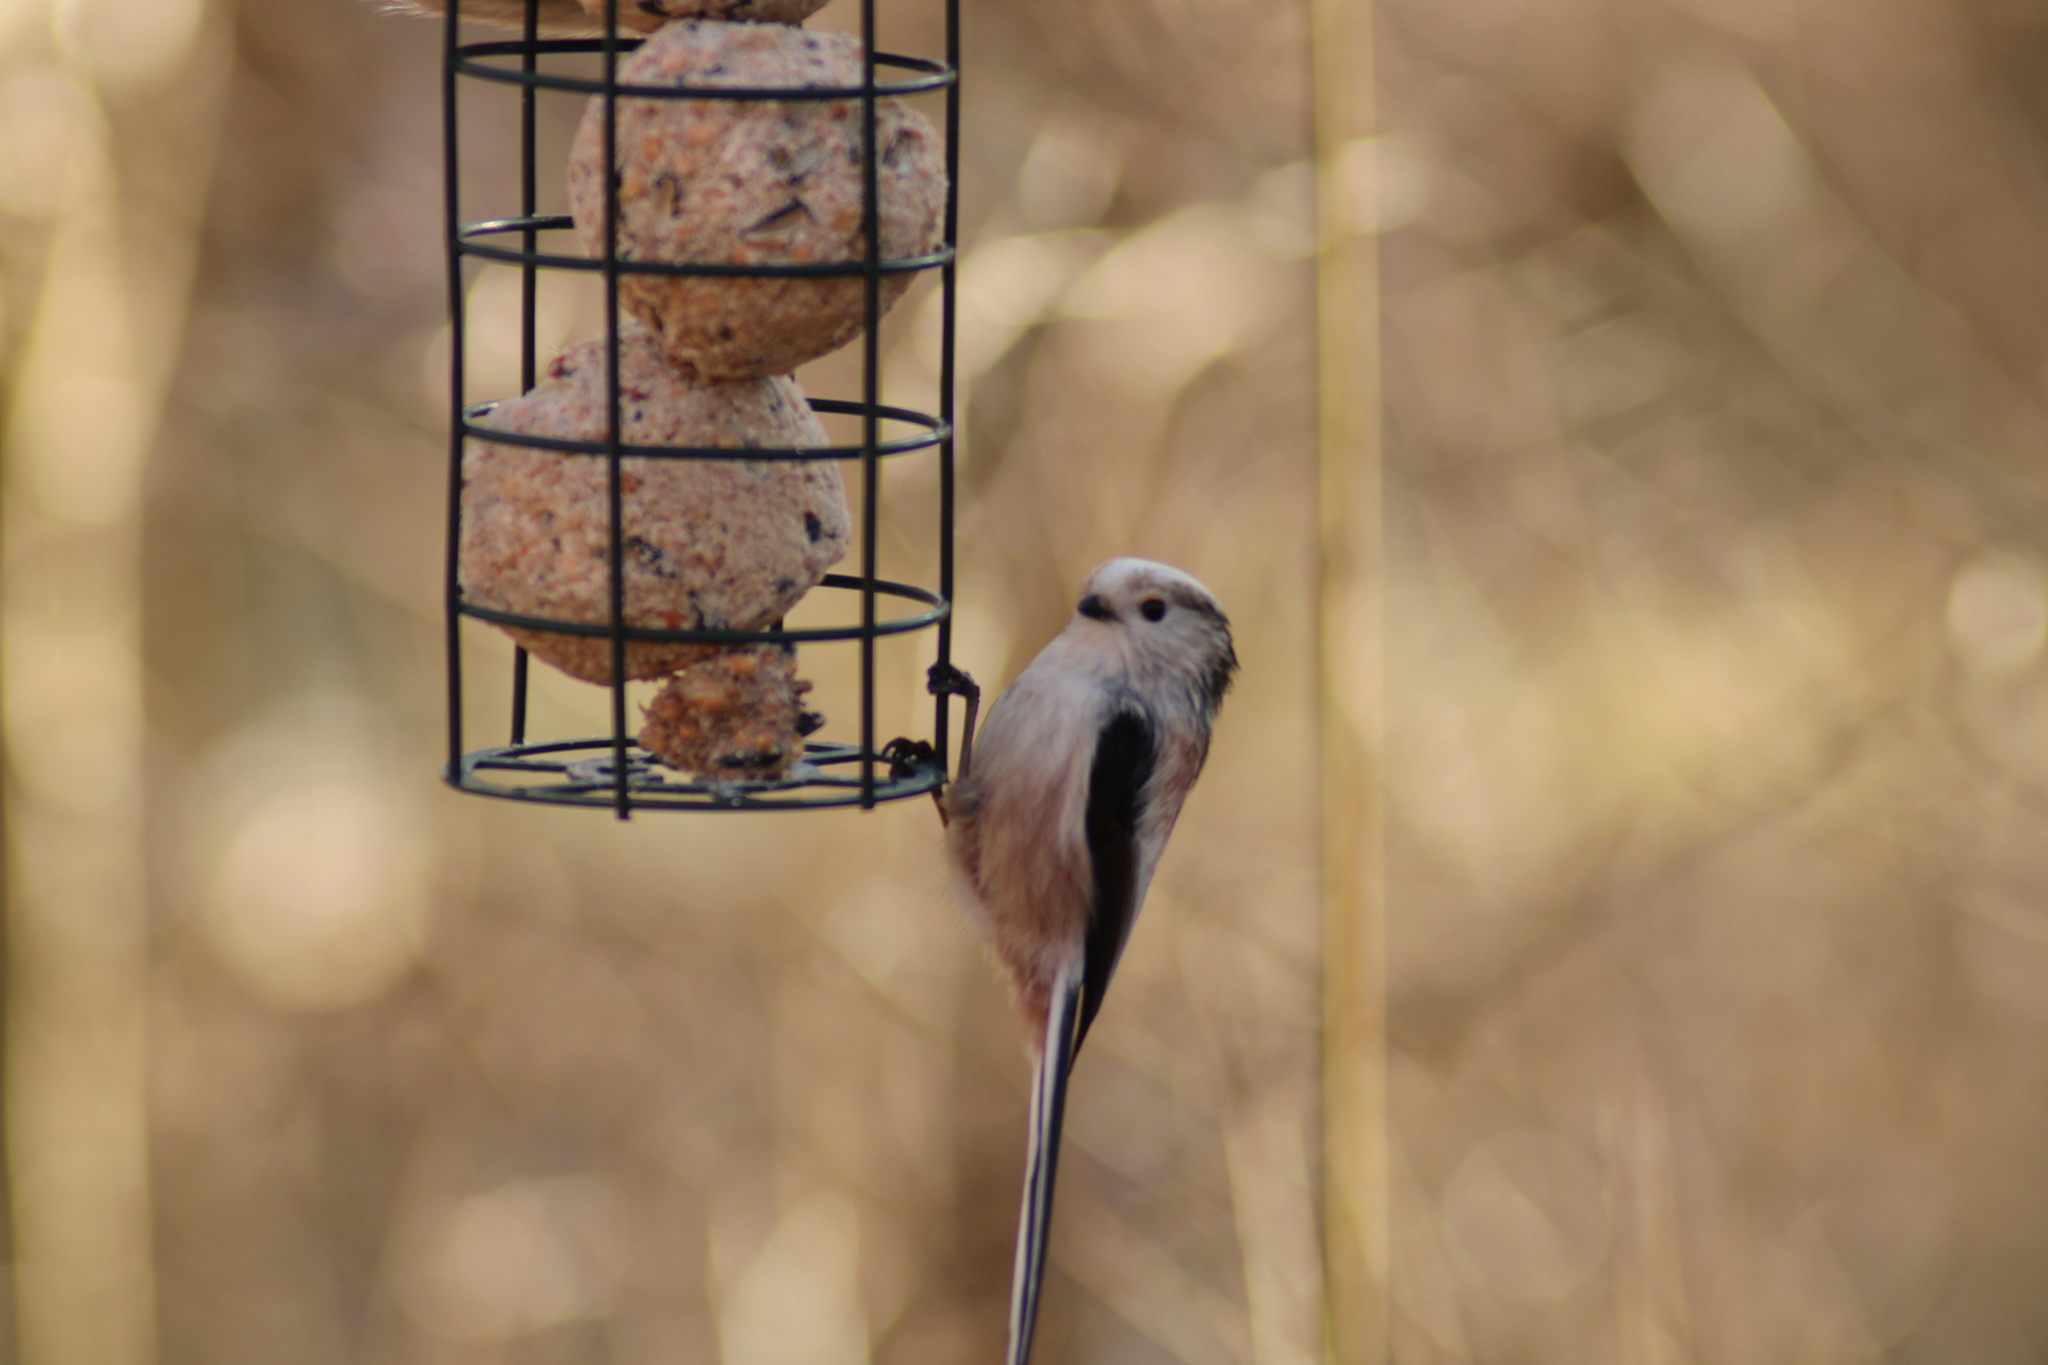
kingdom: Animalia
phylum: Chordata
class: Aves
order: Passeriformes
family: Aegithalidae
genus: Aegithalos
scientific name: Aegithalos caudatus
